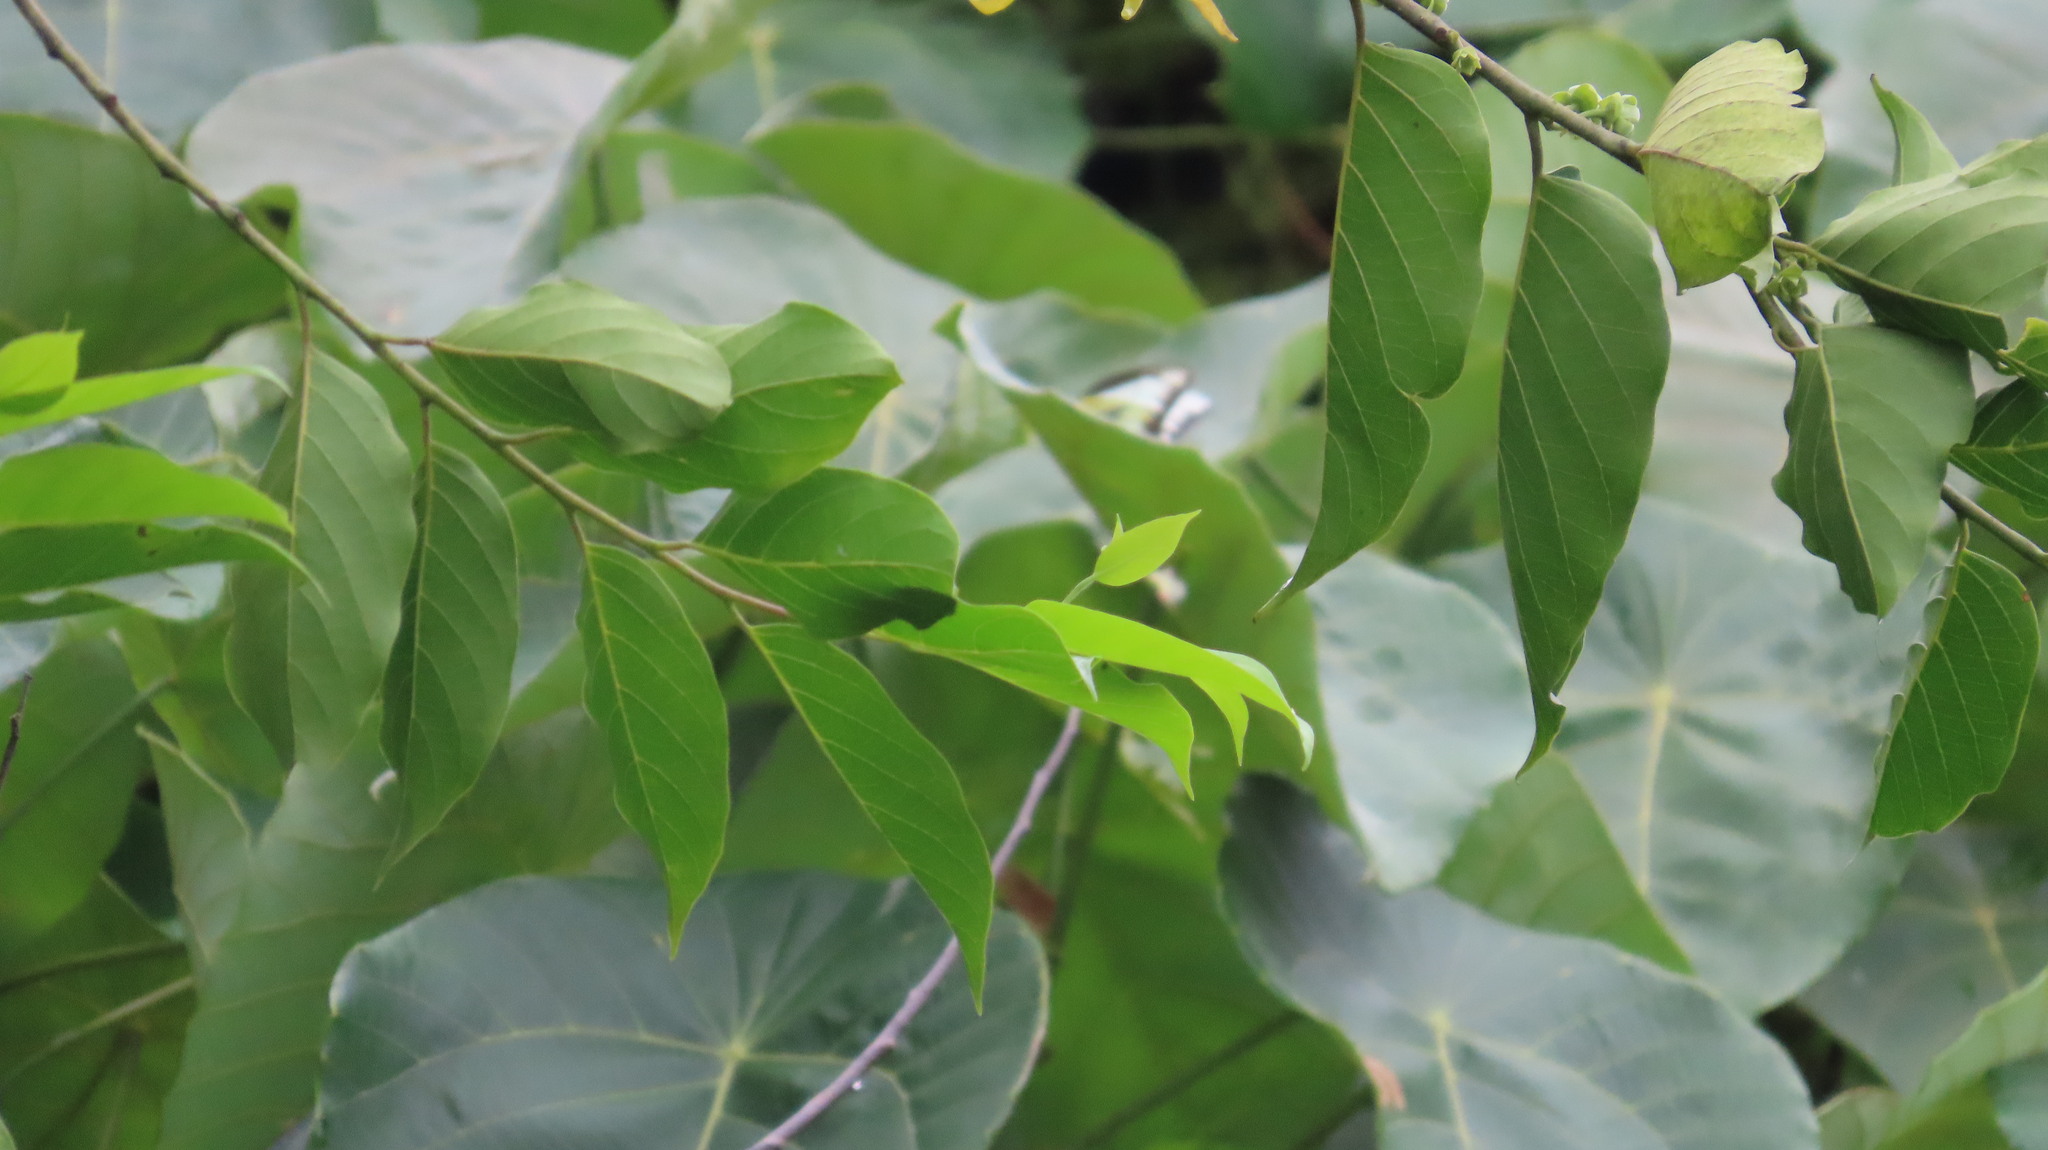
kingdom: Animalia
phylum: Arthropoda
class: Insecta
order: Lepidoptera
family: Pieridae
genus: Appias
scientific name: Appias lyncida
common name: Chocolate albatross
